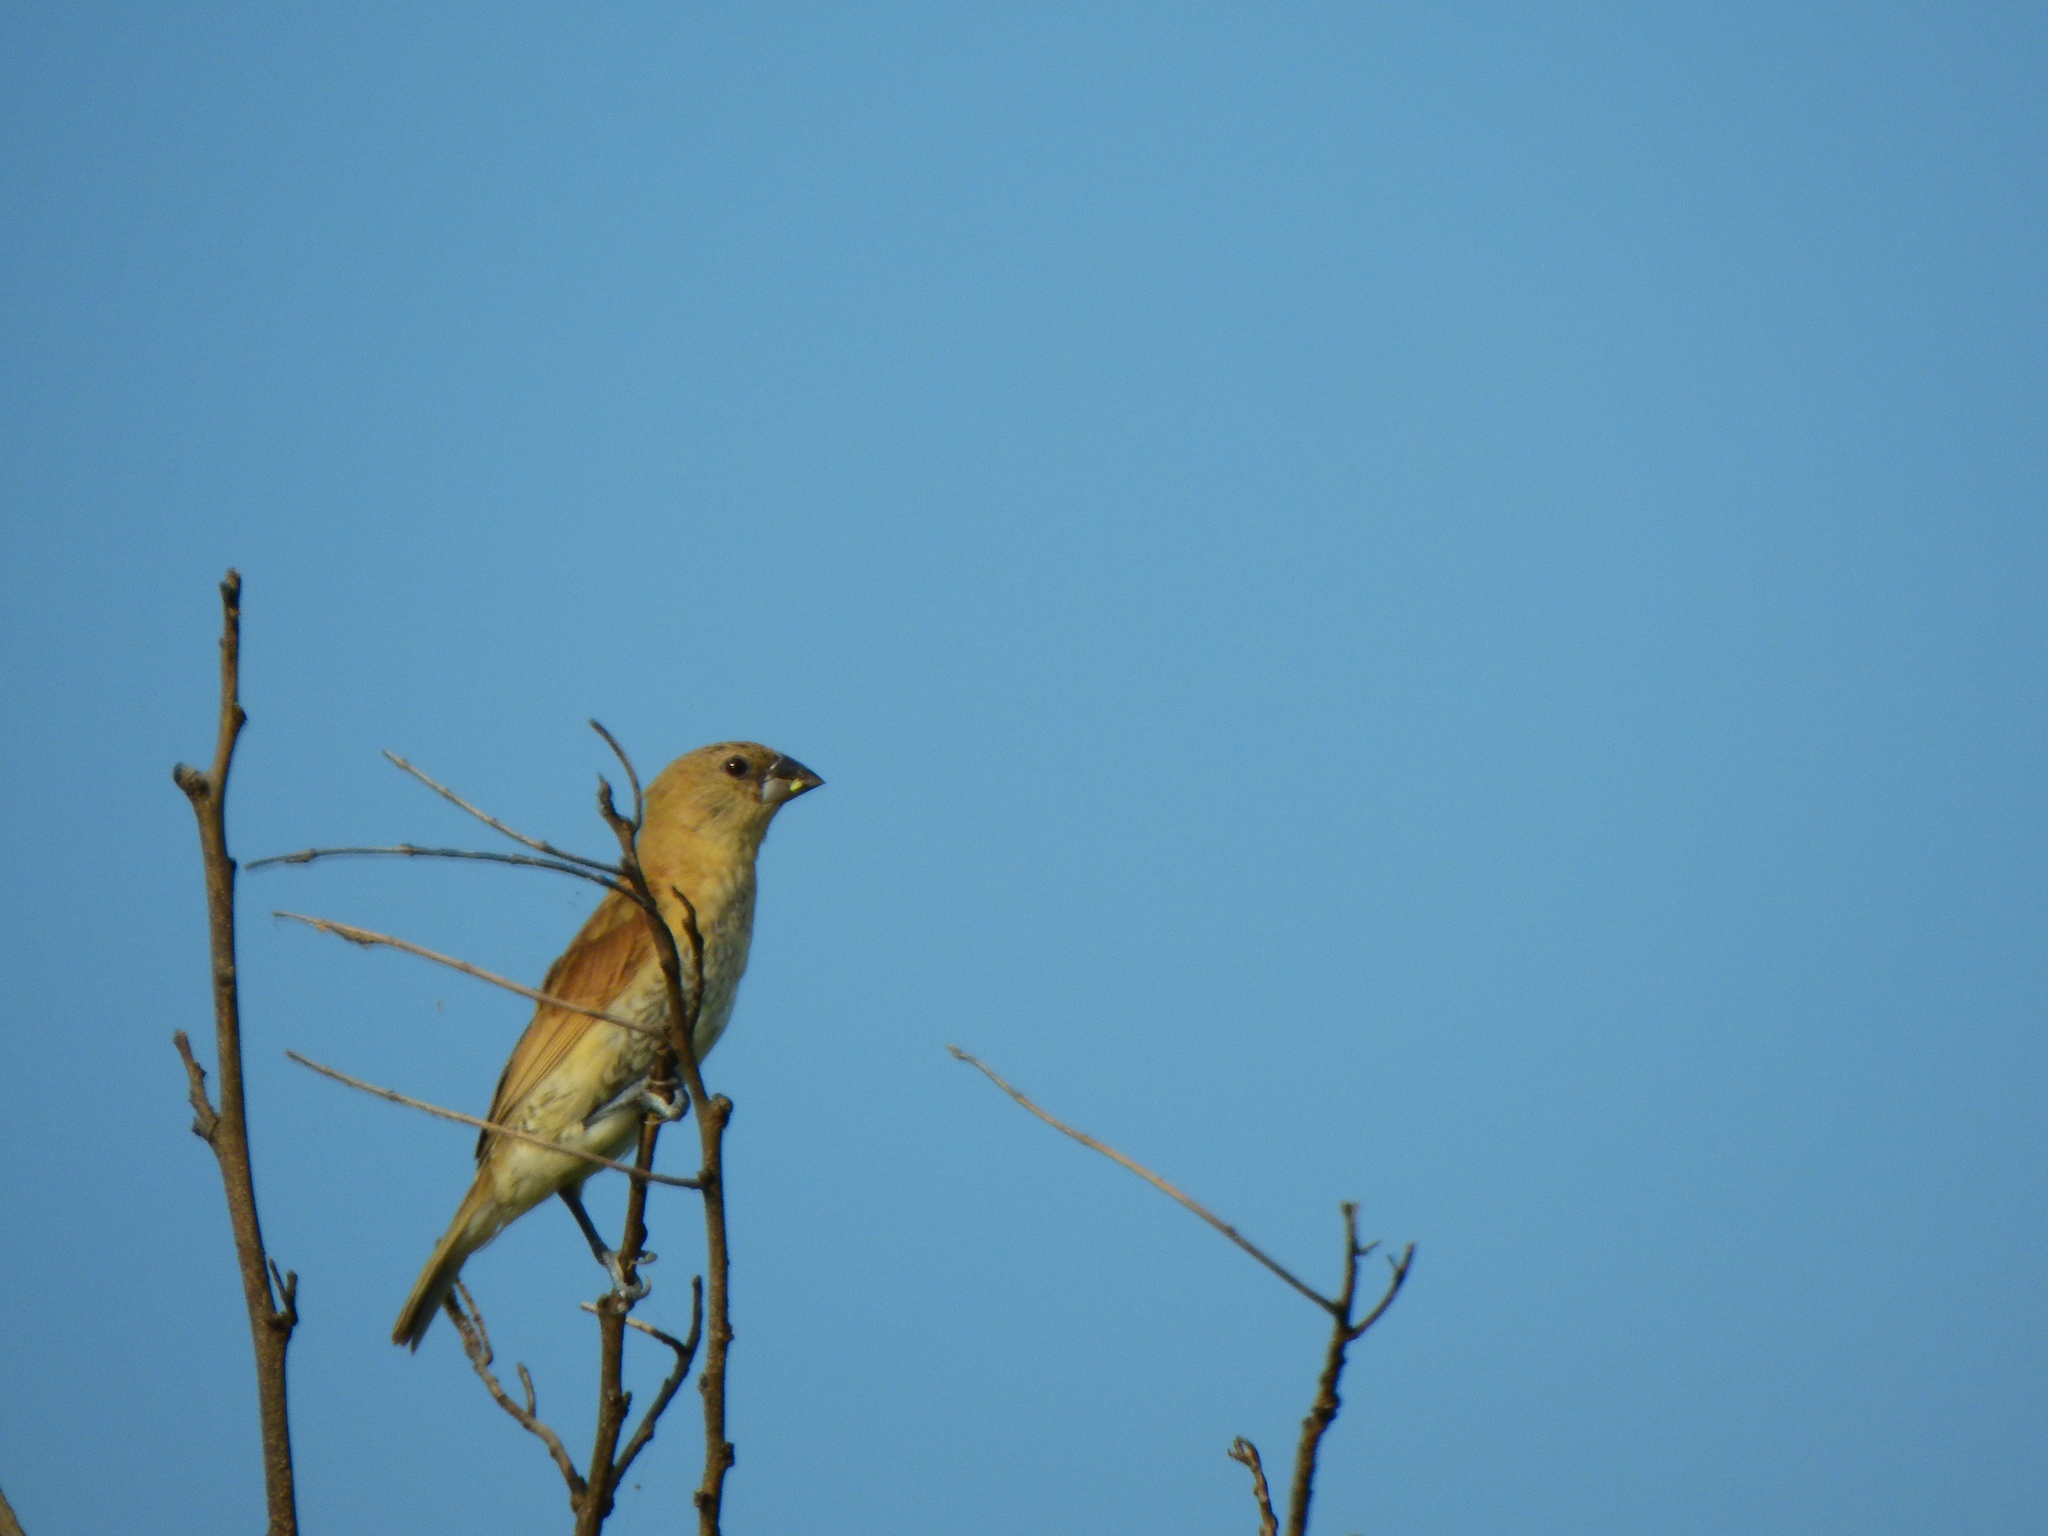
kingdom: Animalia
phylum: Chordata
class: Aves
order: Passeriformes
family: Estrildidae
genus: Lonchura
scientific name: Lonchura punctulata
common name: Scaly-breasted munia
